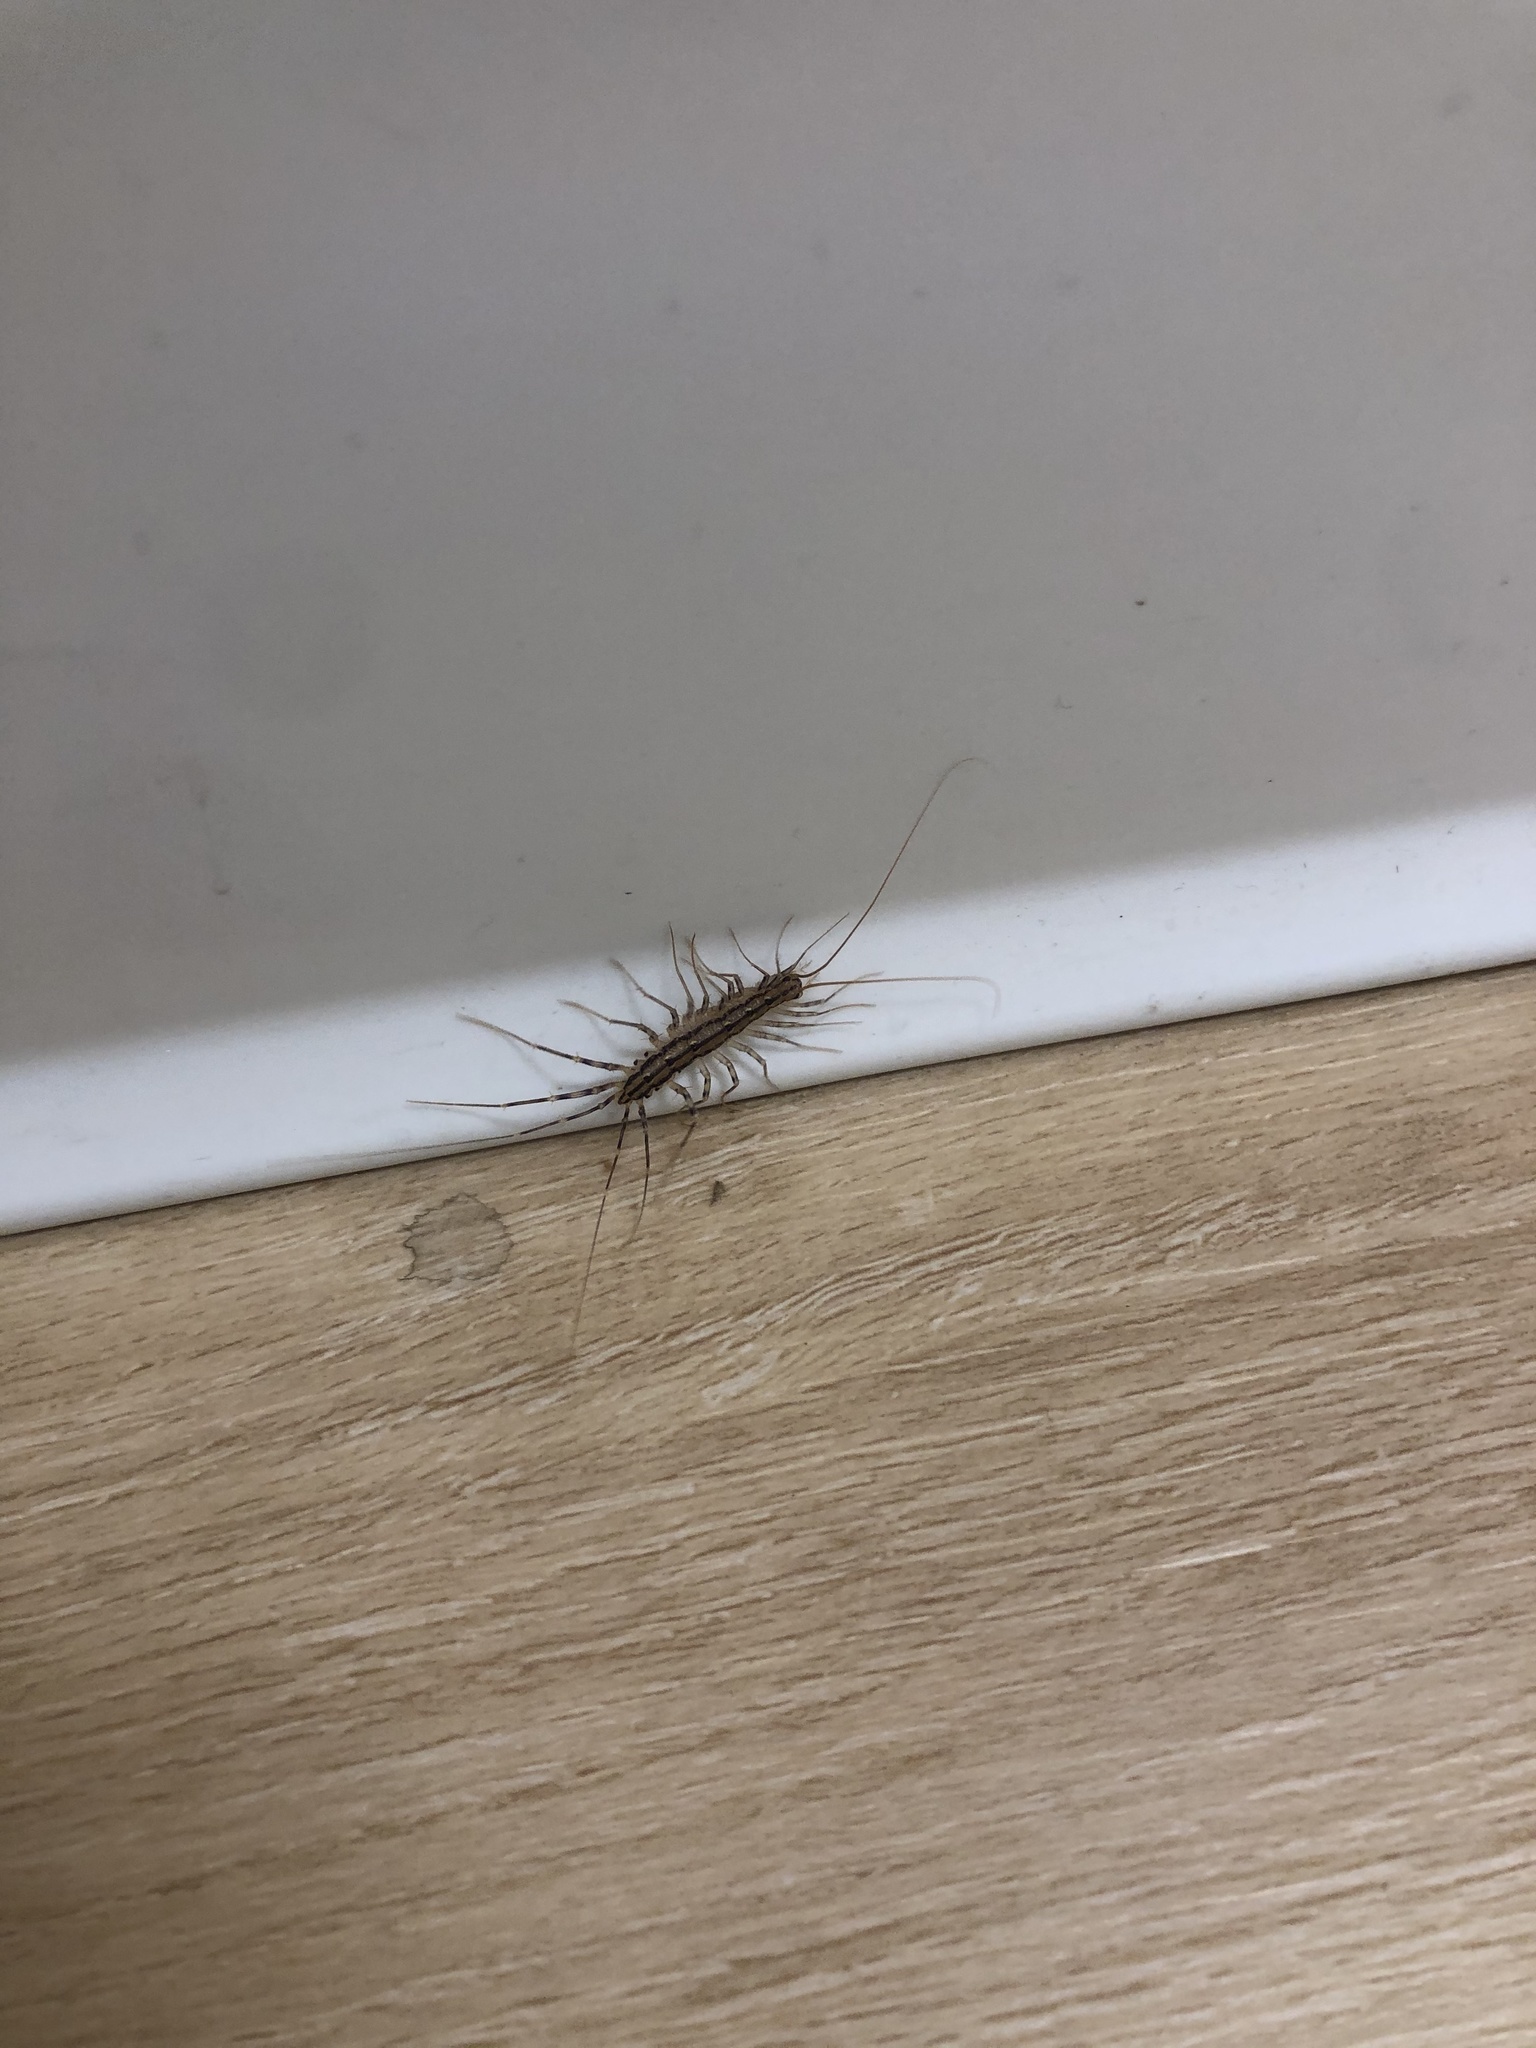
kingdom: Animalia
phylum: Arthropoda
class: Chilopoda
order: Scutigeromorpha
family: Scutigeridae
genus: Scutigera
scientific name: Scutigera coleoptrata
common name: House centipede
